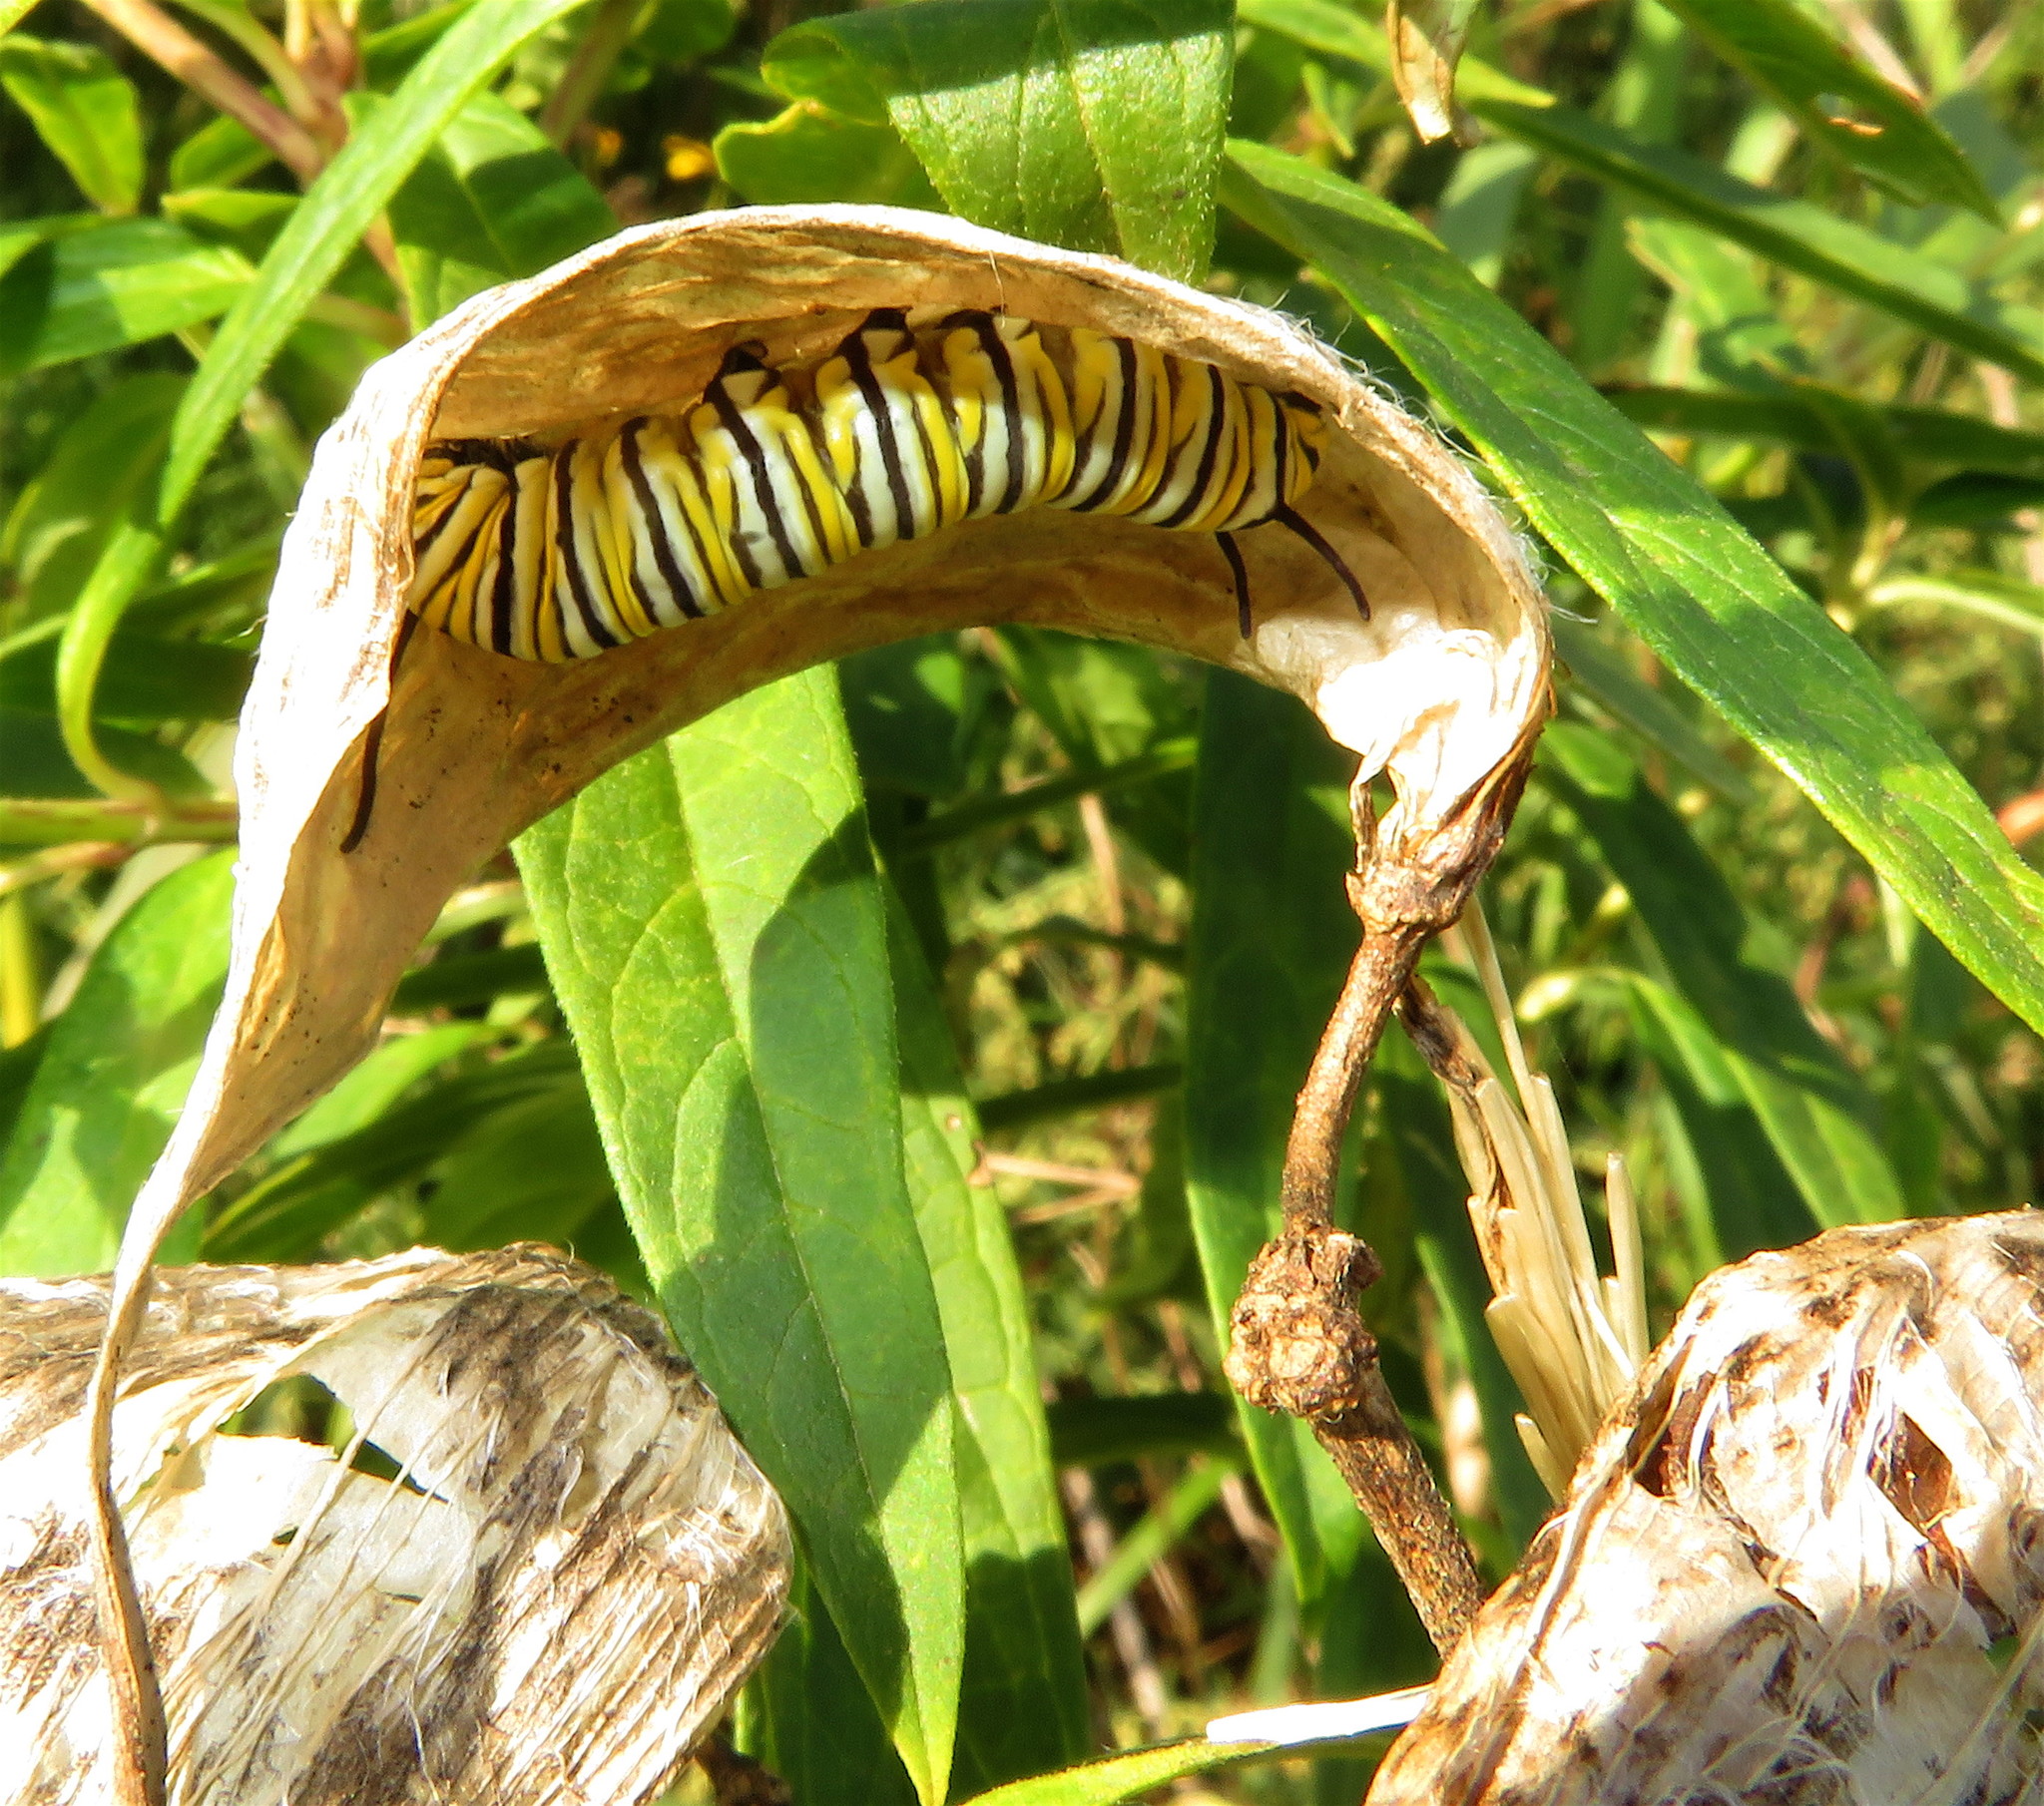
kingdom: Animalia
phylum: Arthropoda
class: Insecta
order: Lepidoptera
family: Nymphalidae
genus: Danaus
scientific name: Danaus plexippus
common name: Monarch
